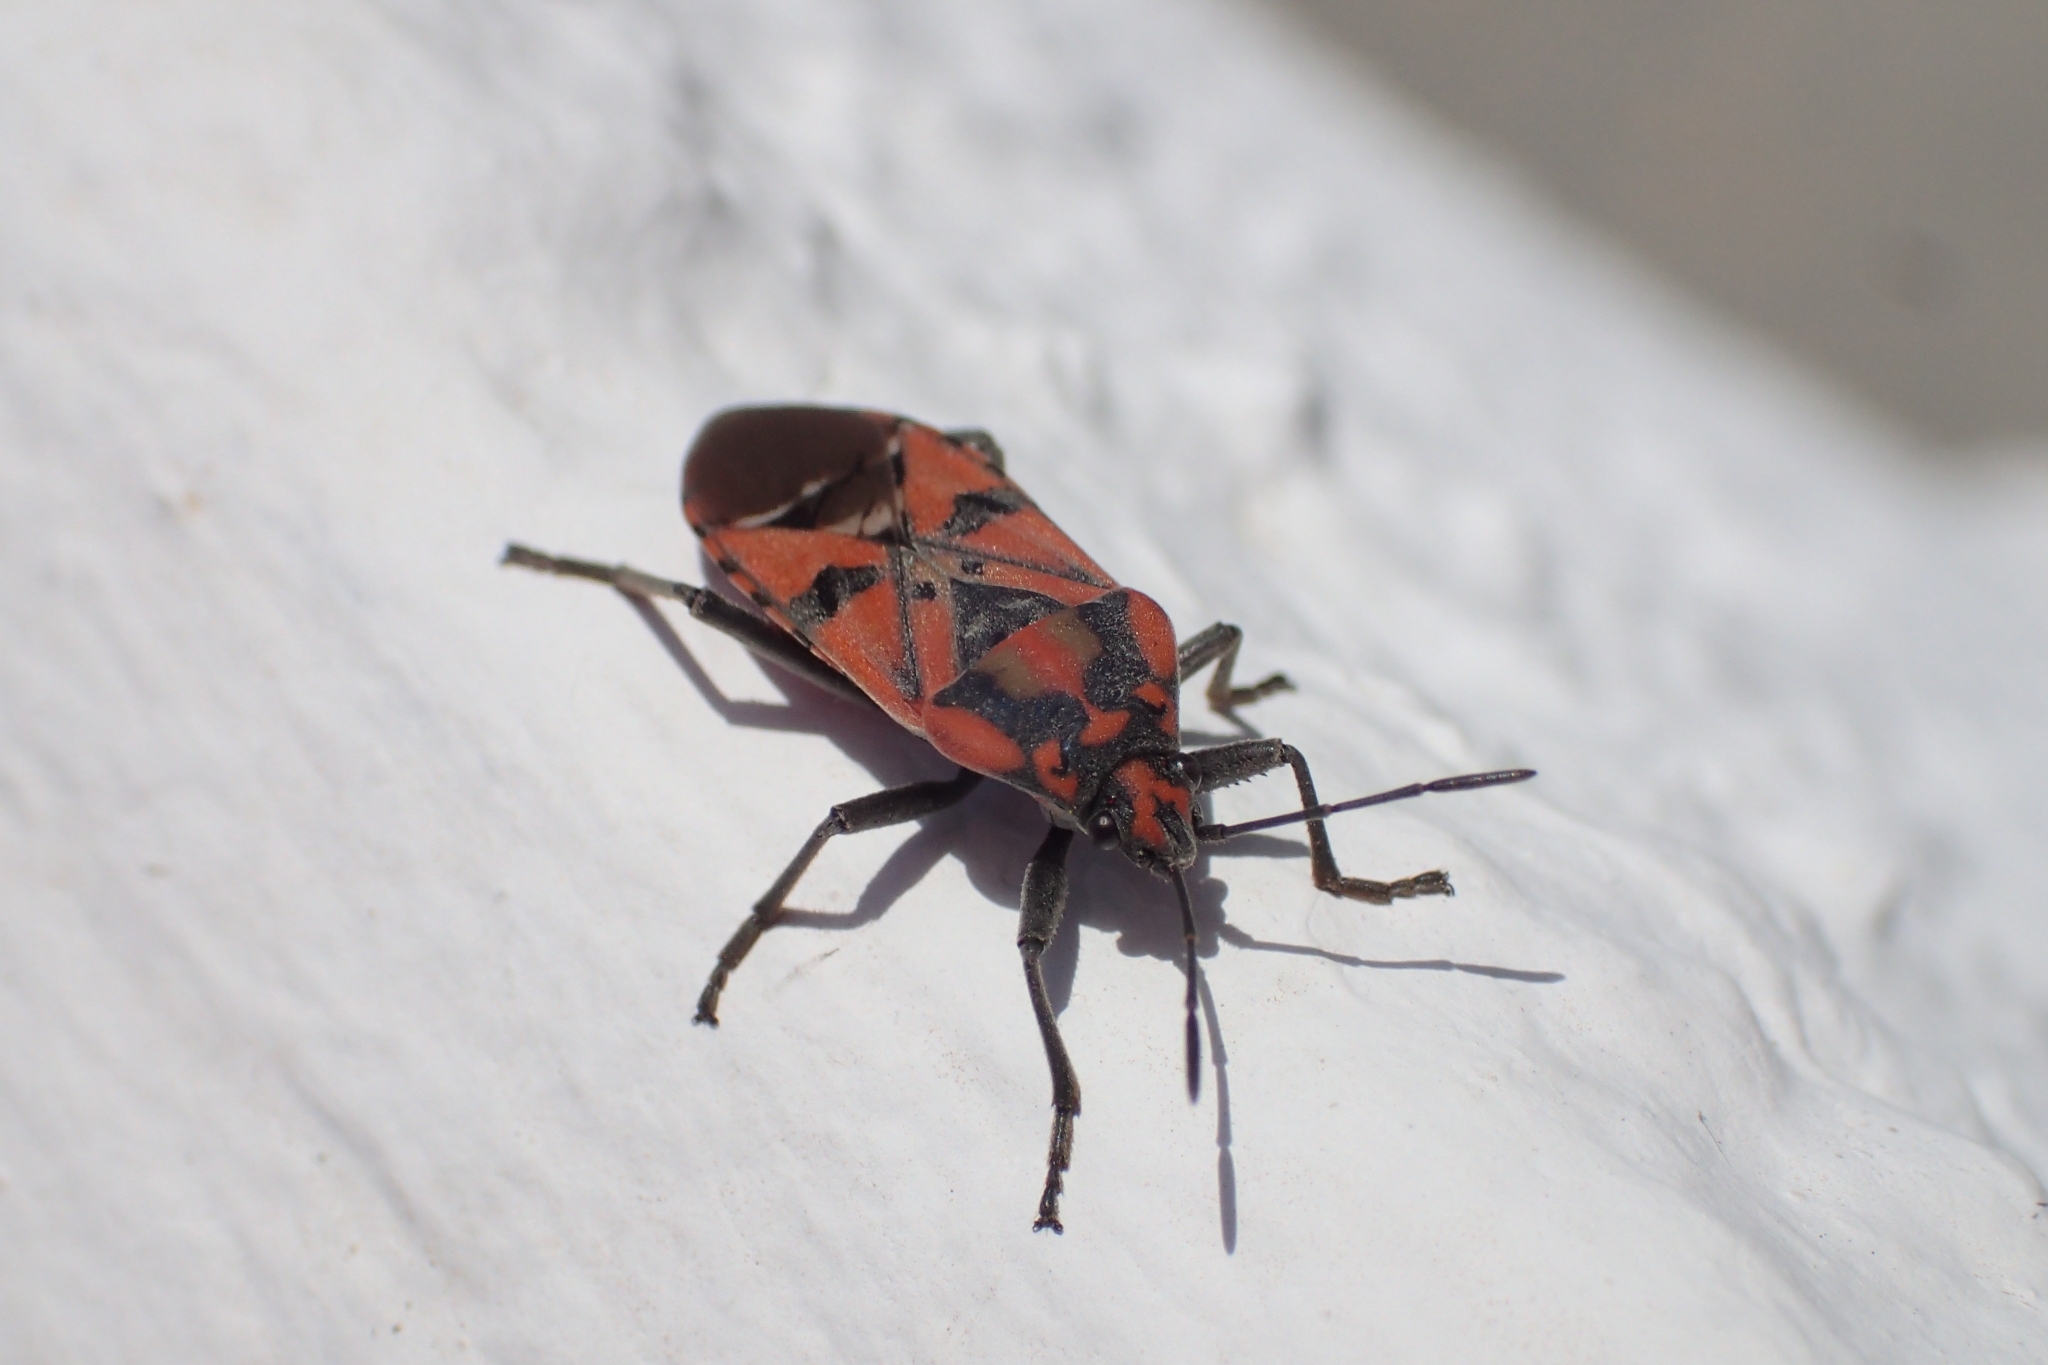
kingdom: Animalia
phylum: Arthropoda
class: Insecta
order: Hemiptera
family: Lygaeidae
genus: Spilostethus
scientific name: Spilostethus pandurus
